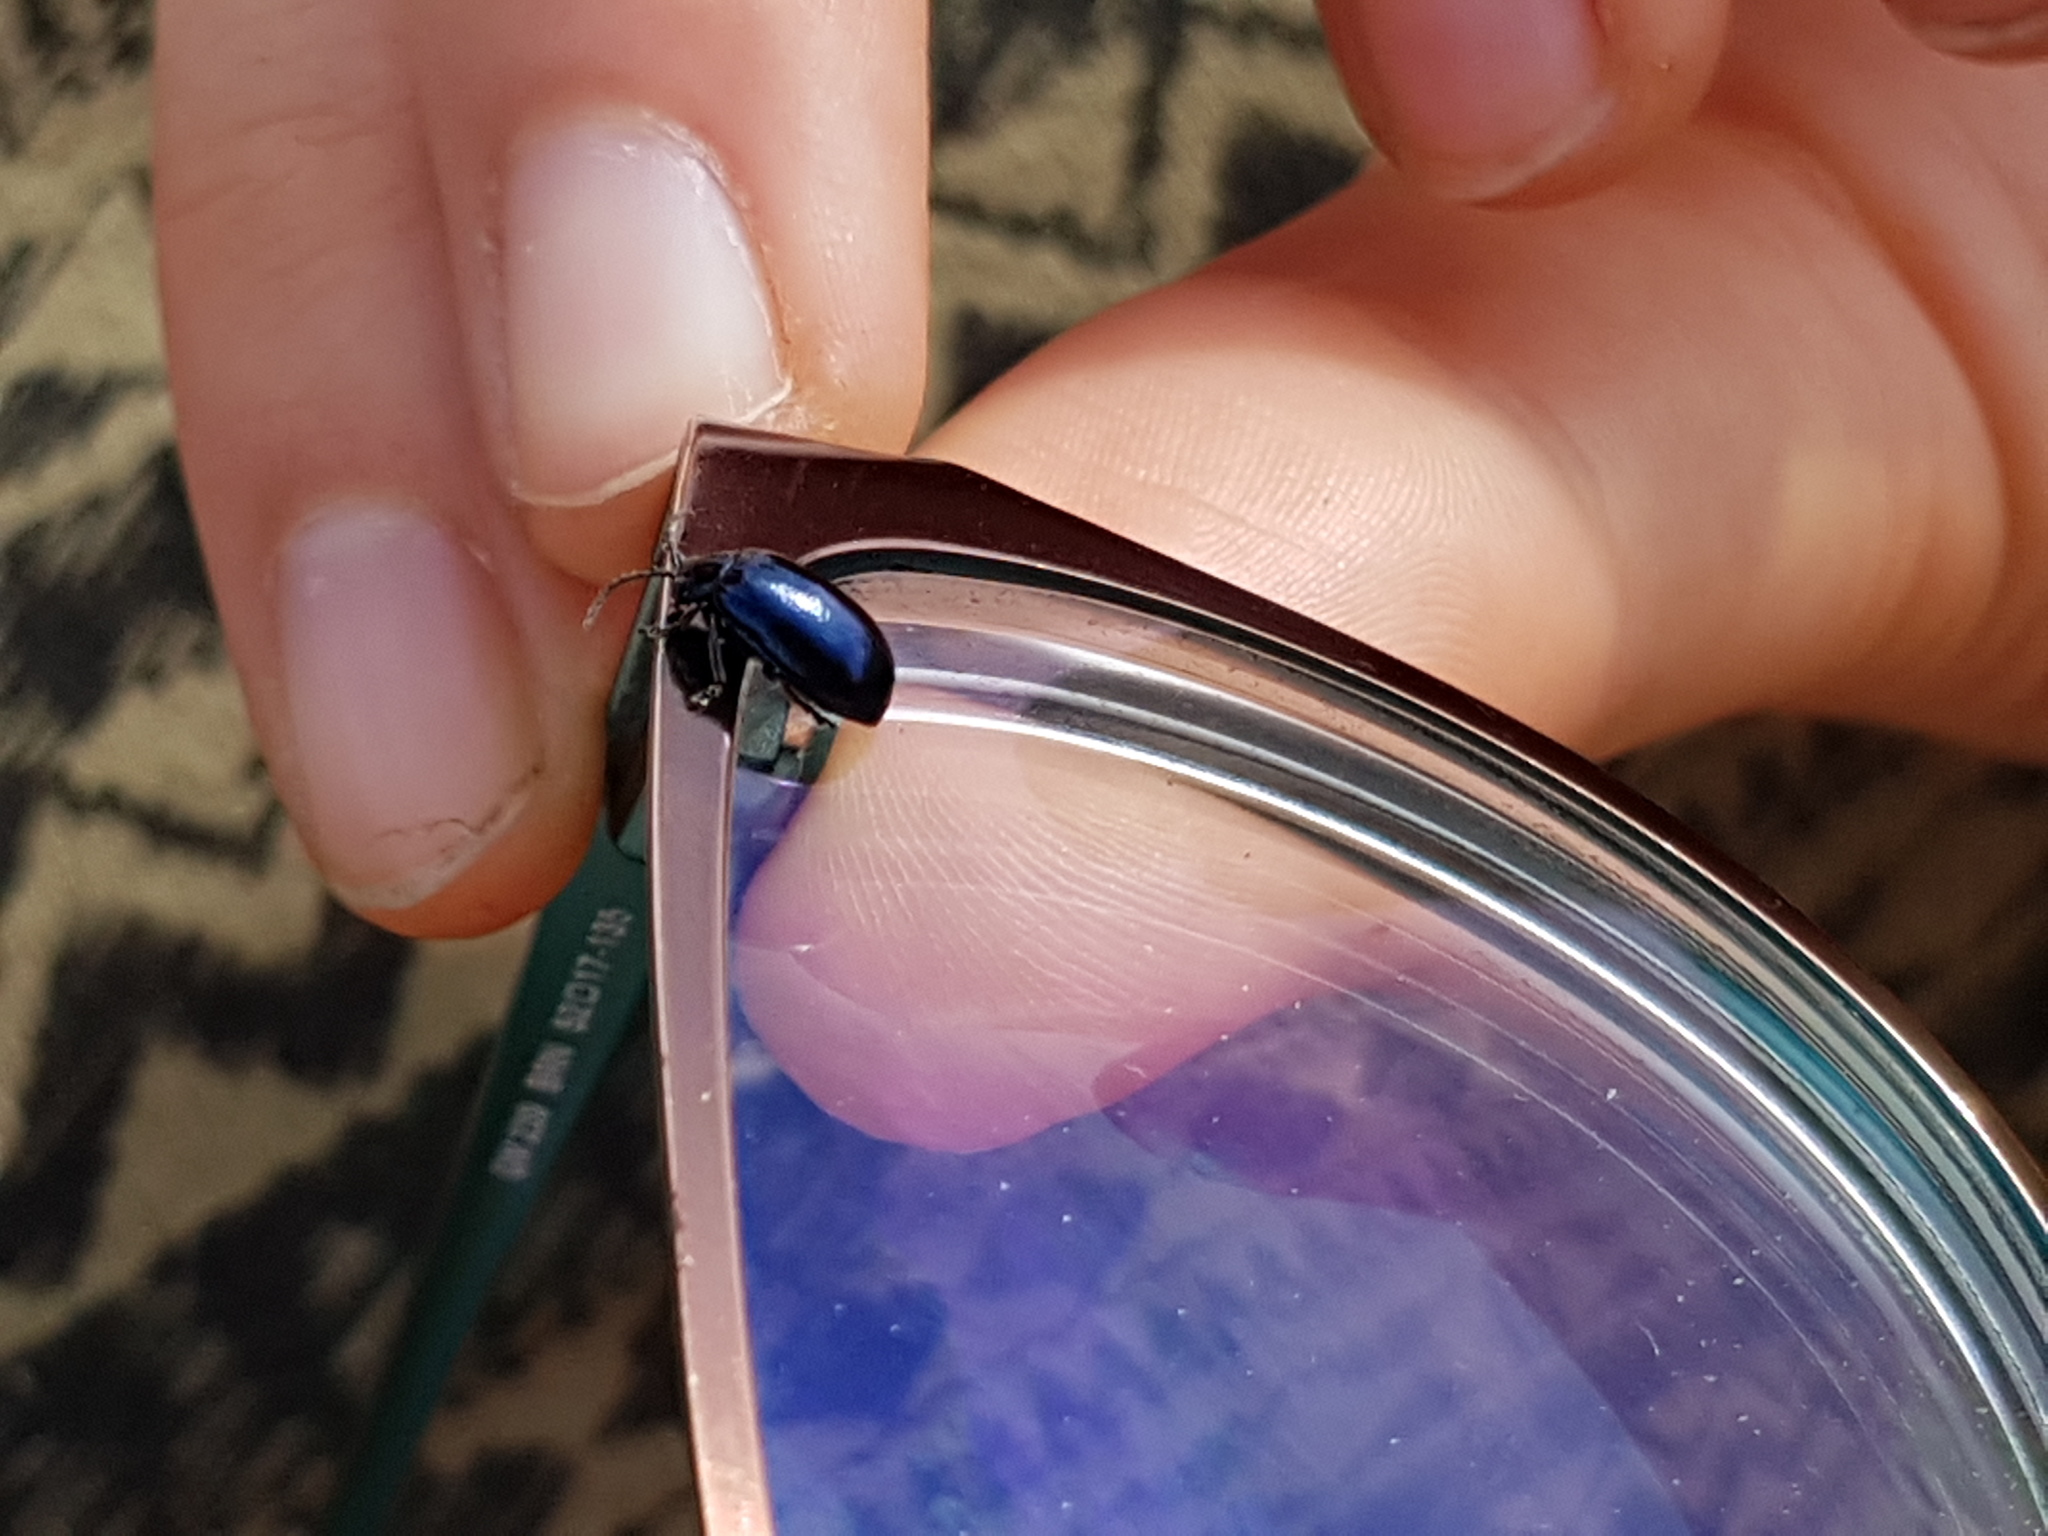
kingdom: Animalia
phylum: Arthropoda
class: Insecta
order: Coleoptera
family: Chrysomelidae
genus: Agelastica
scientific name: Agelastica alni
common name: Alder leaf beetle
